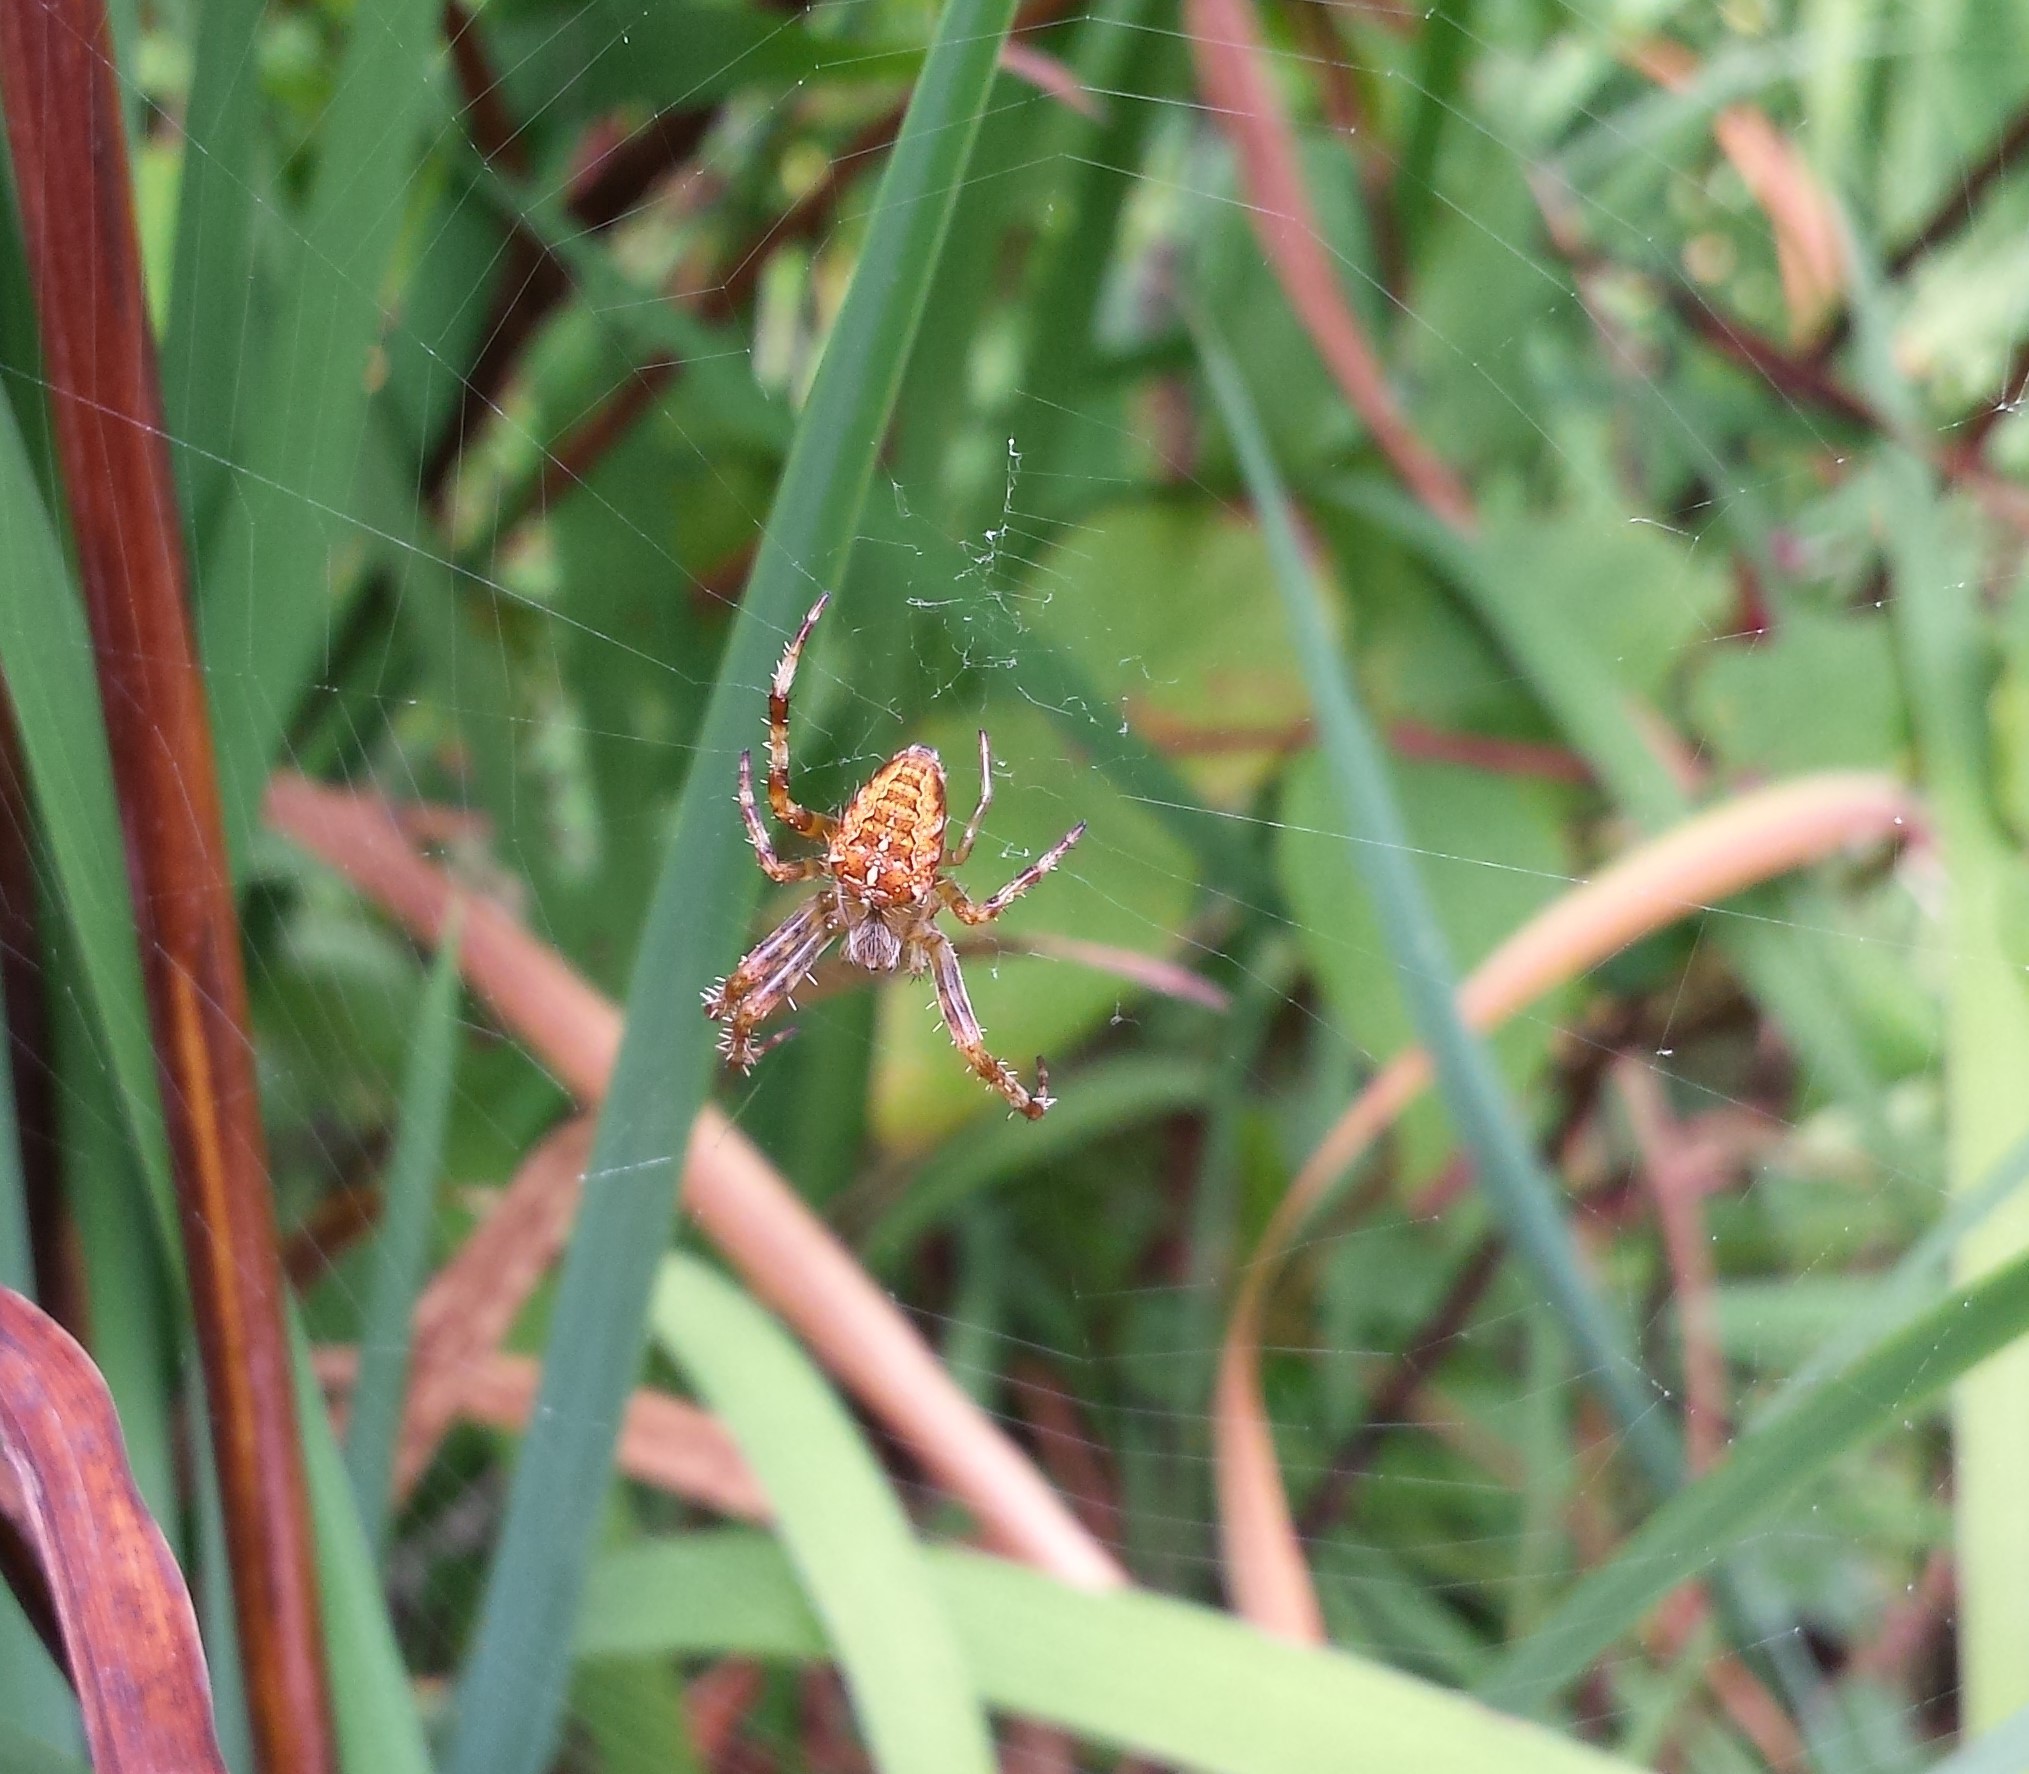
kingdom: Animalia
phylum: Arthropoda
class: Arachnida
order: Araneae
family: Araneidae
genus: Araneus
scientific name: Araneus diadematus
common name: Cross orbweaver
